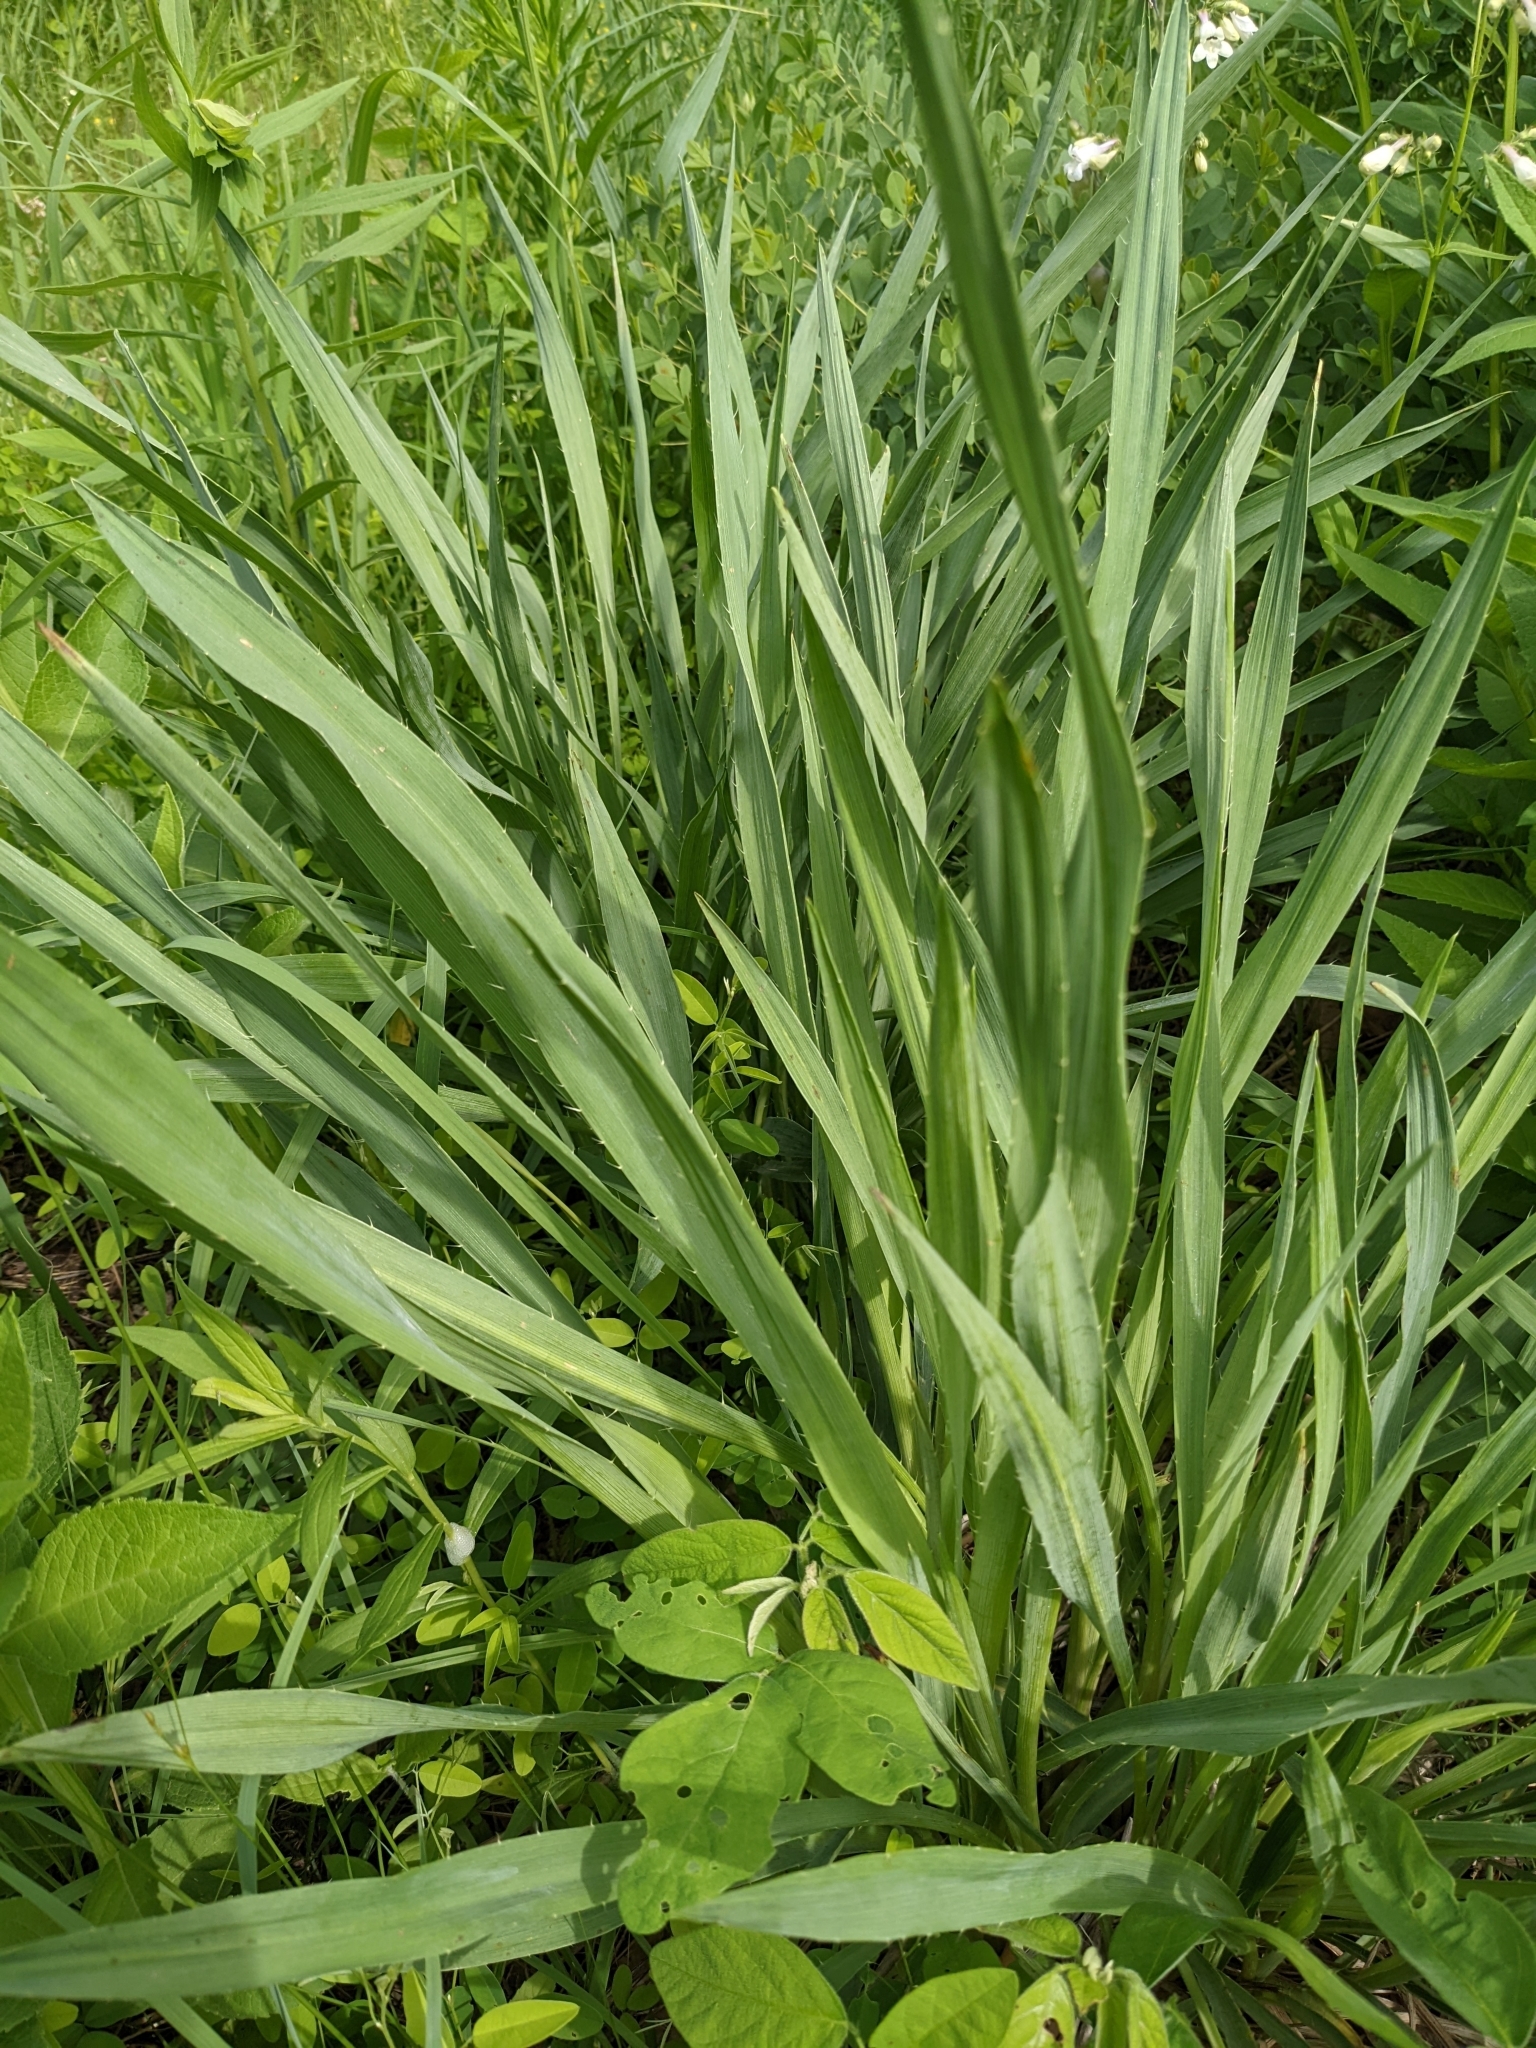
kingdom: Plantae
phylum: Tracheophyta
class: Magnoliopsida
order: Apiales
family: Apiaceae
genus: Eryngium
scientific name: Eryngium yuccifolium
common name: Button eryngo
